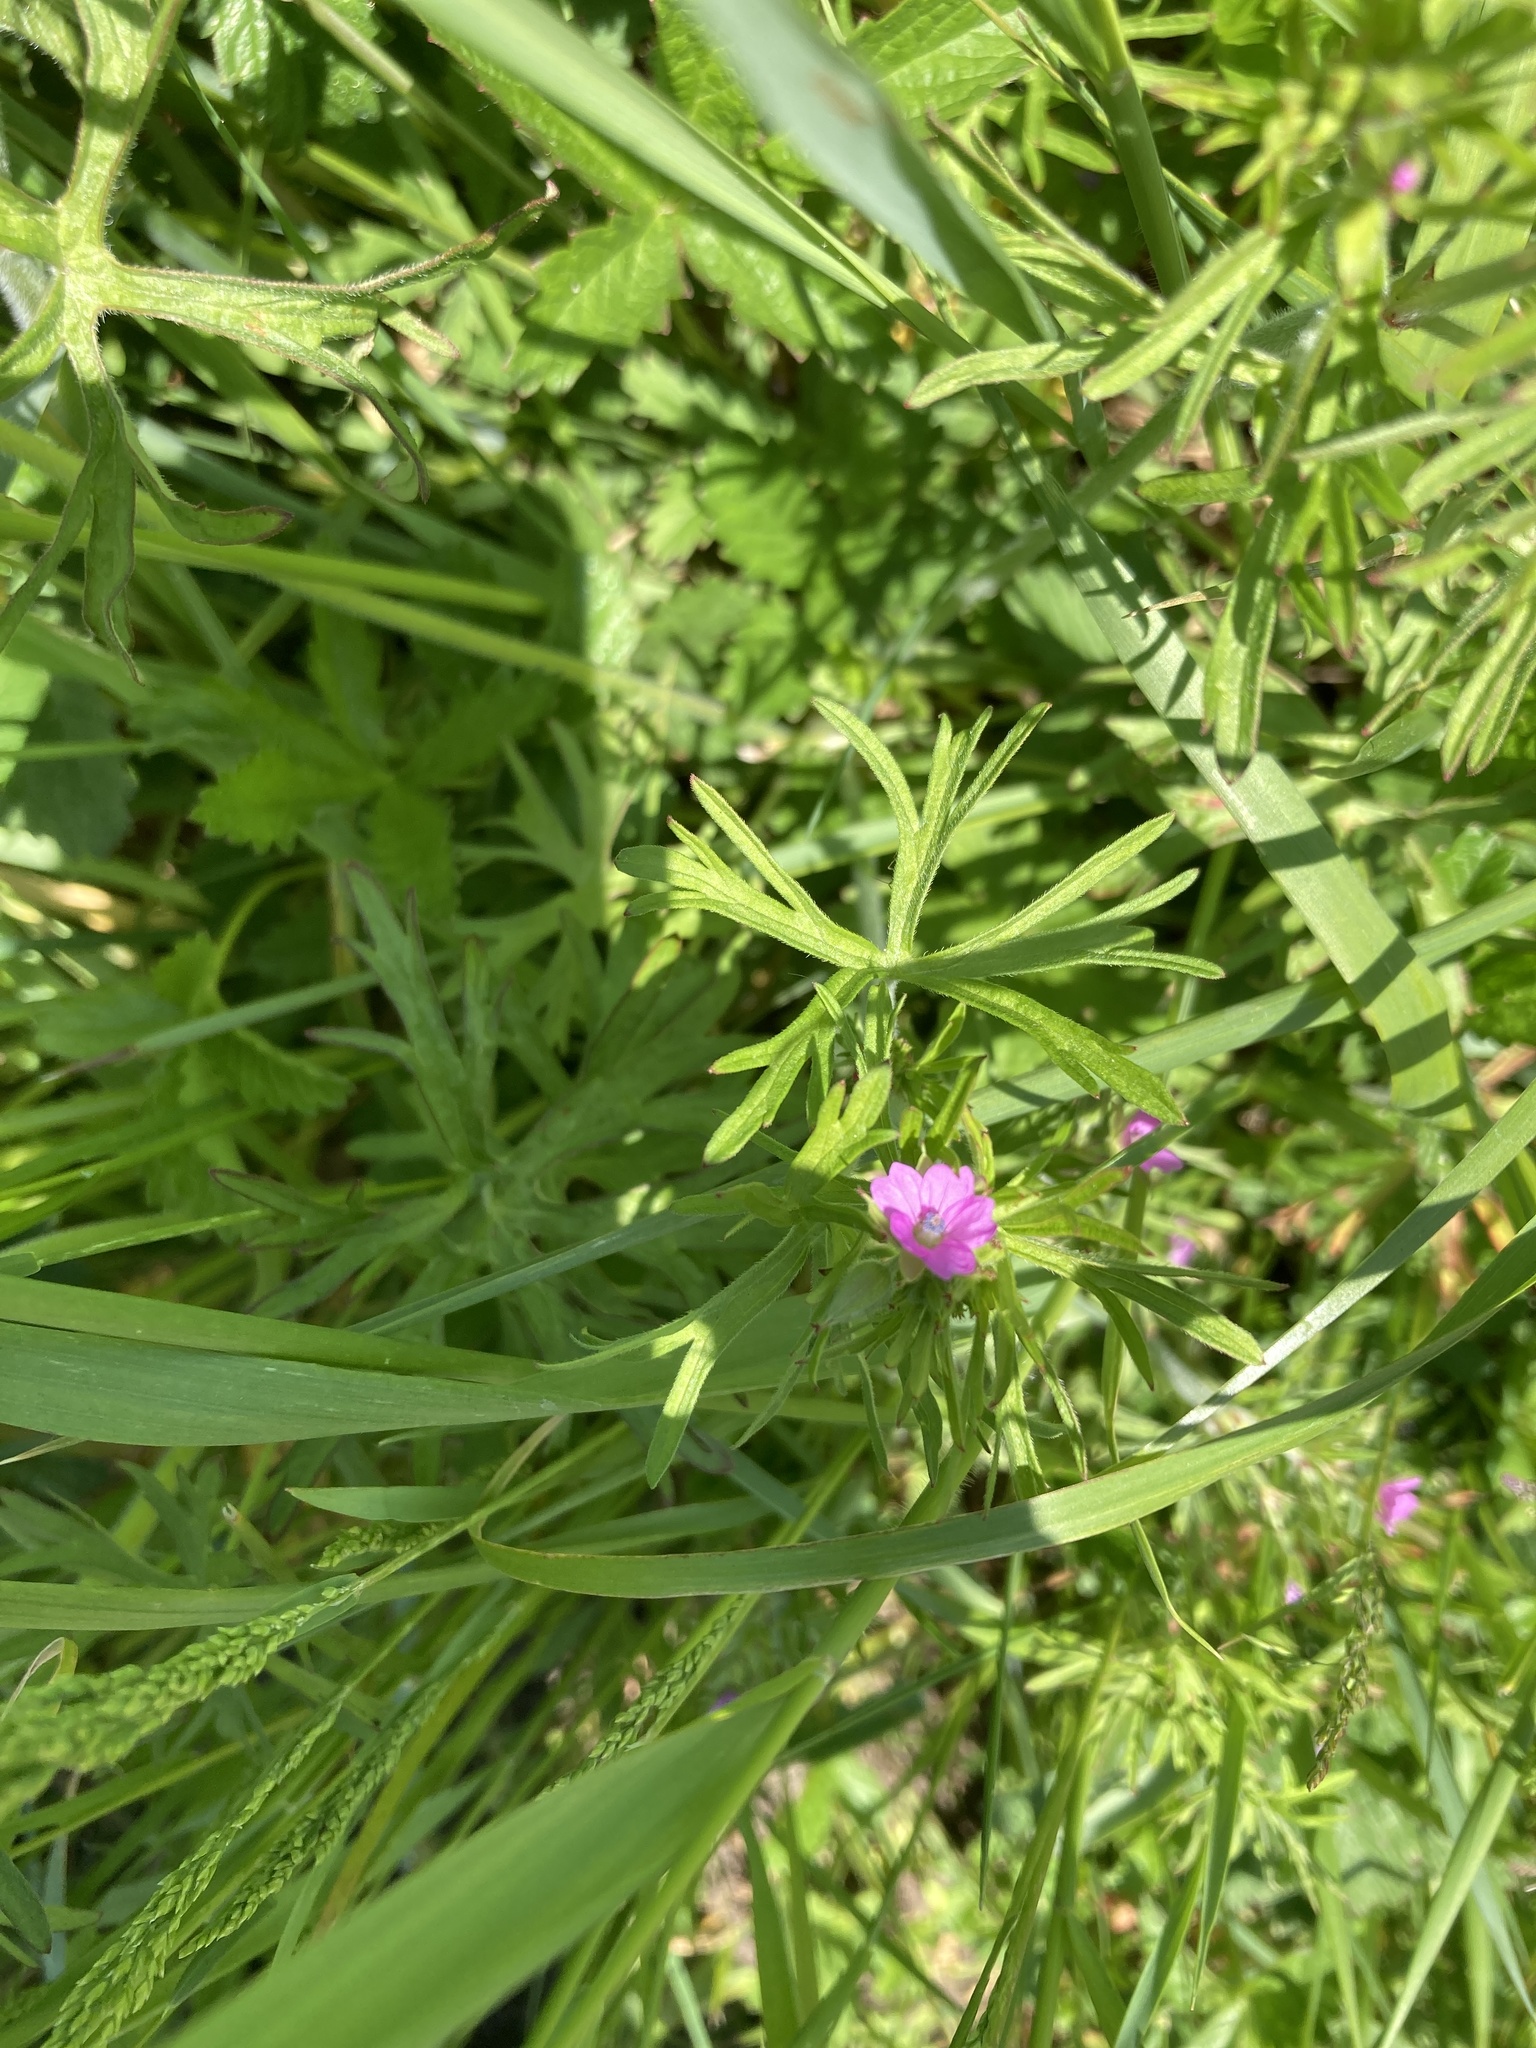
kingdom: Plantae
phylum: Tracheophyta
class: Magnoliopsida
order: Geraniales
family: Geraniaceae
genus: Geranium
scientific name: Geranium dissectum
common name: Cut-leaved crane's-bill
